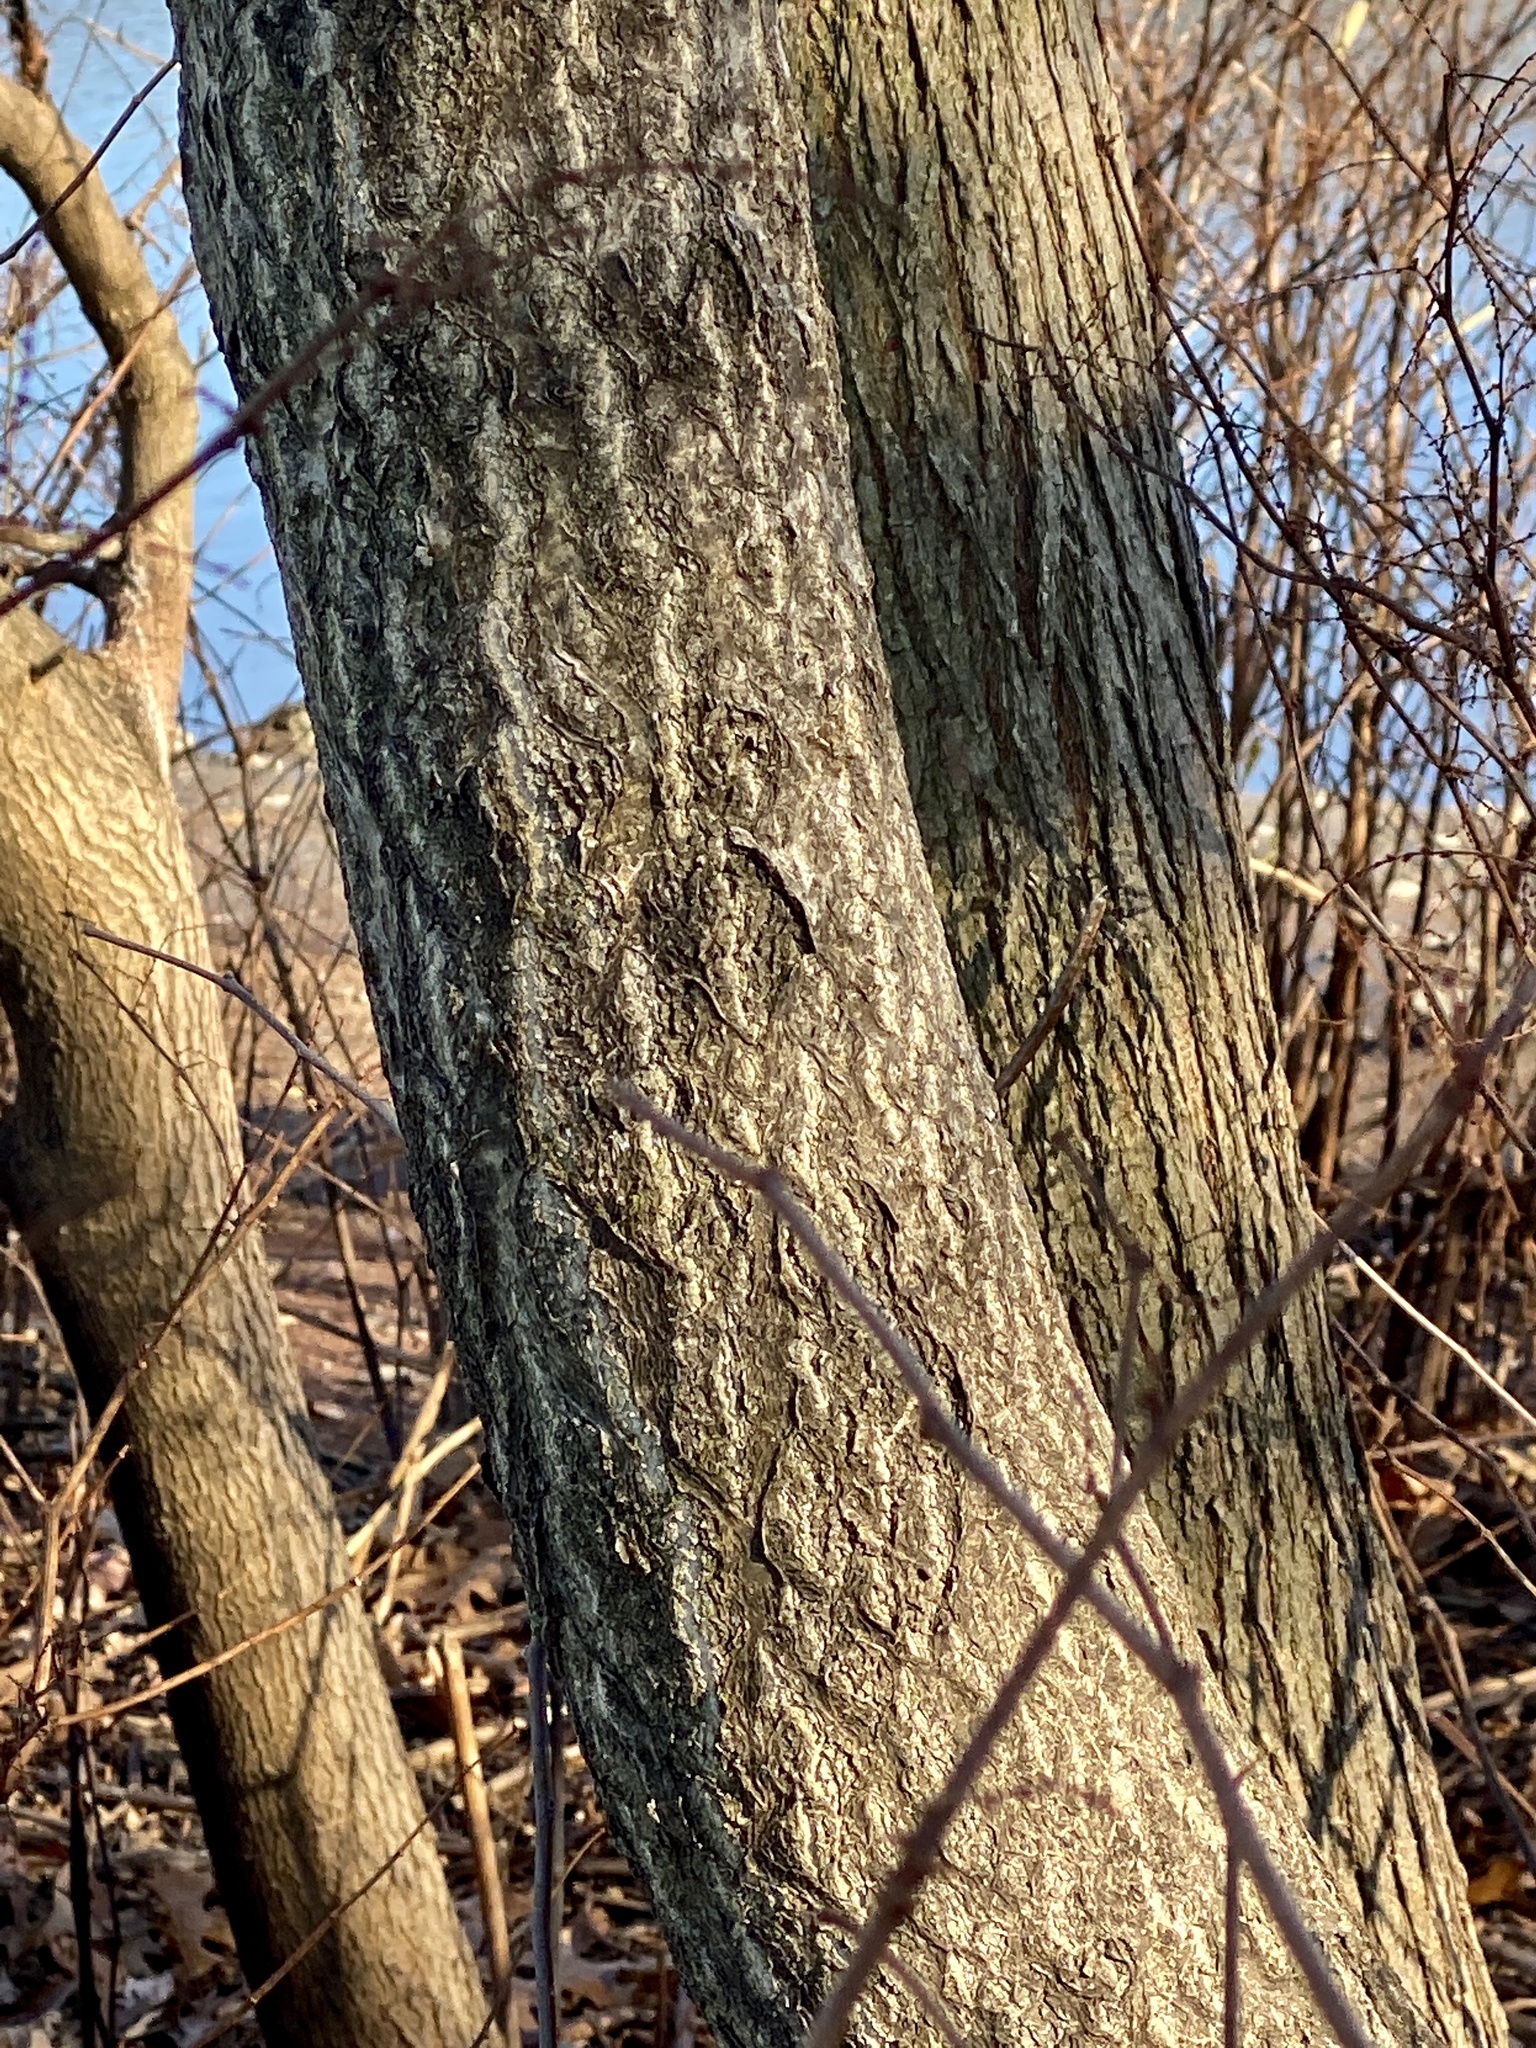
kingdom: Plantae
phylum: Tracheophyta
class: Magnoliopsida
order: Sapindales
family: Simaroubaceae
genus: Ailanthus
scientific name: Ailanthus altissima
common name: Tree-of-heaven
